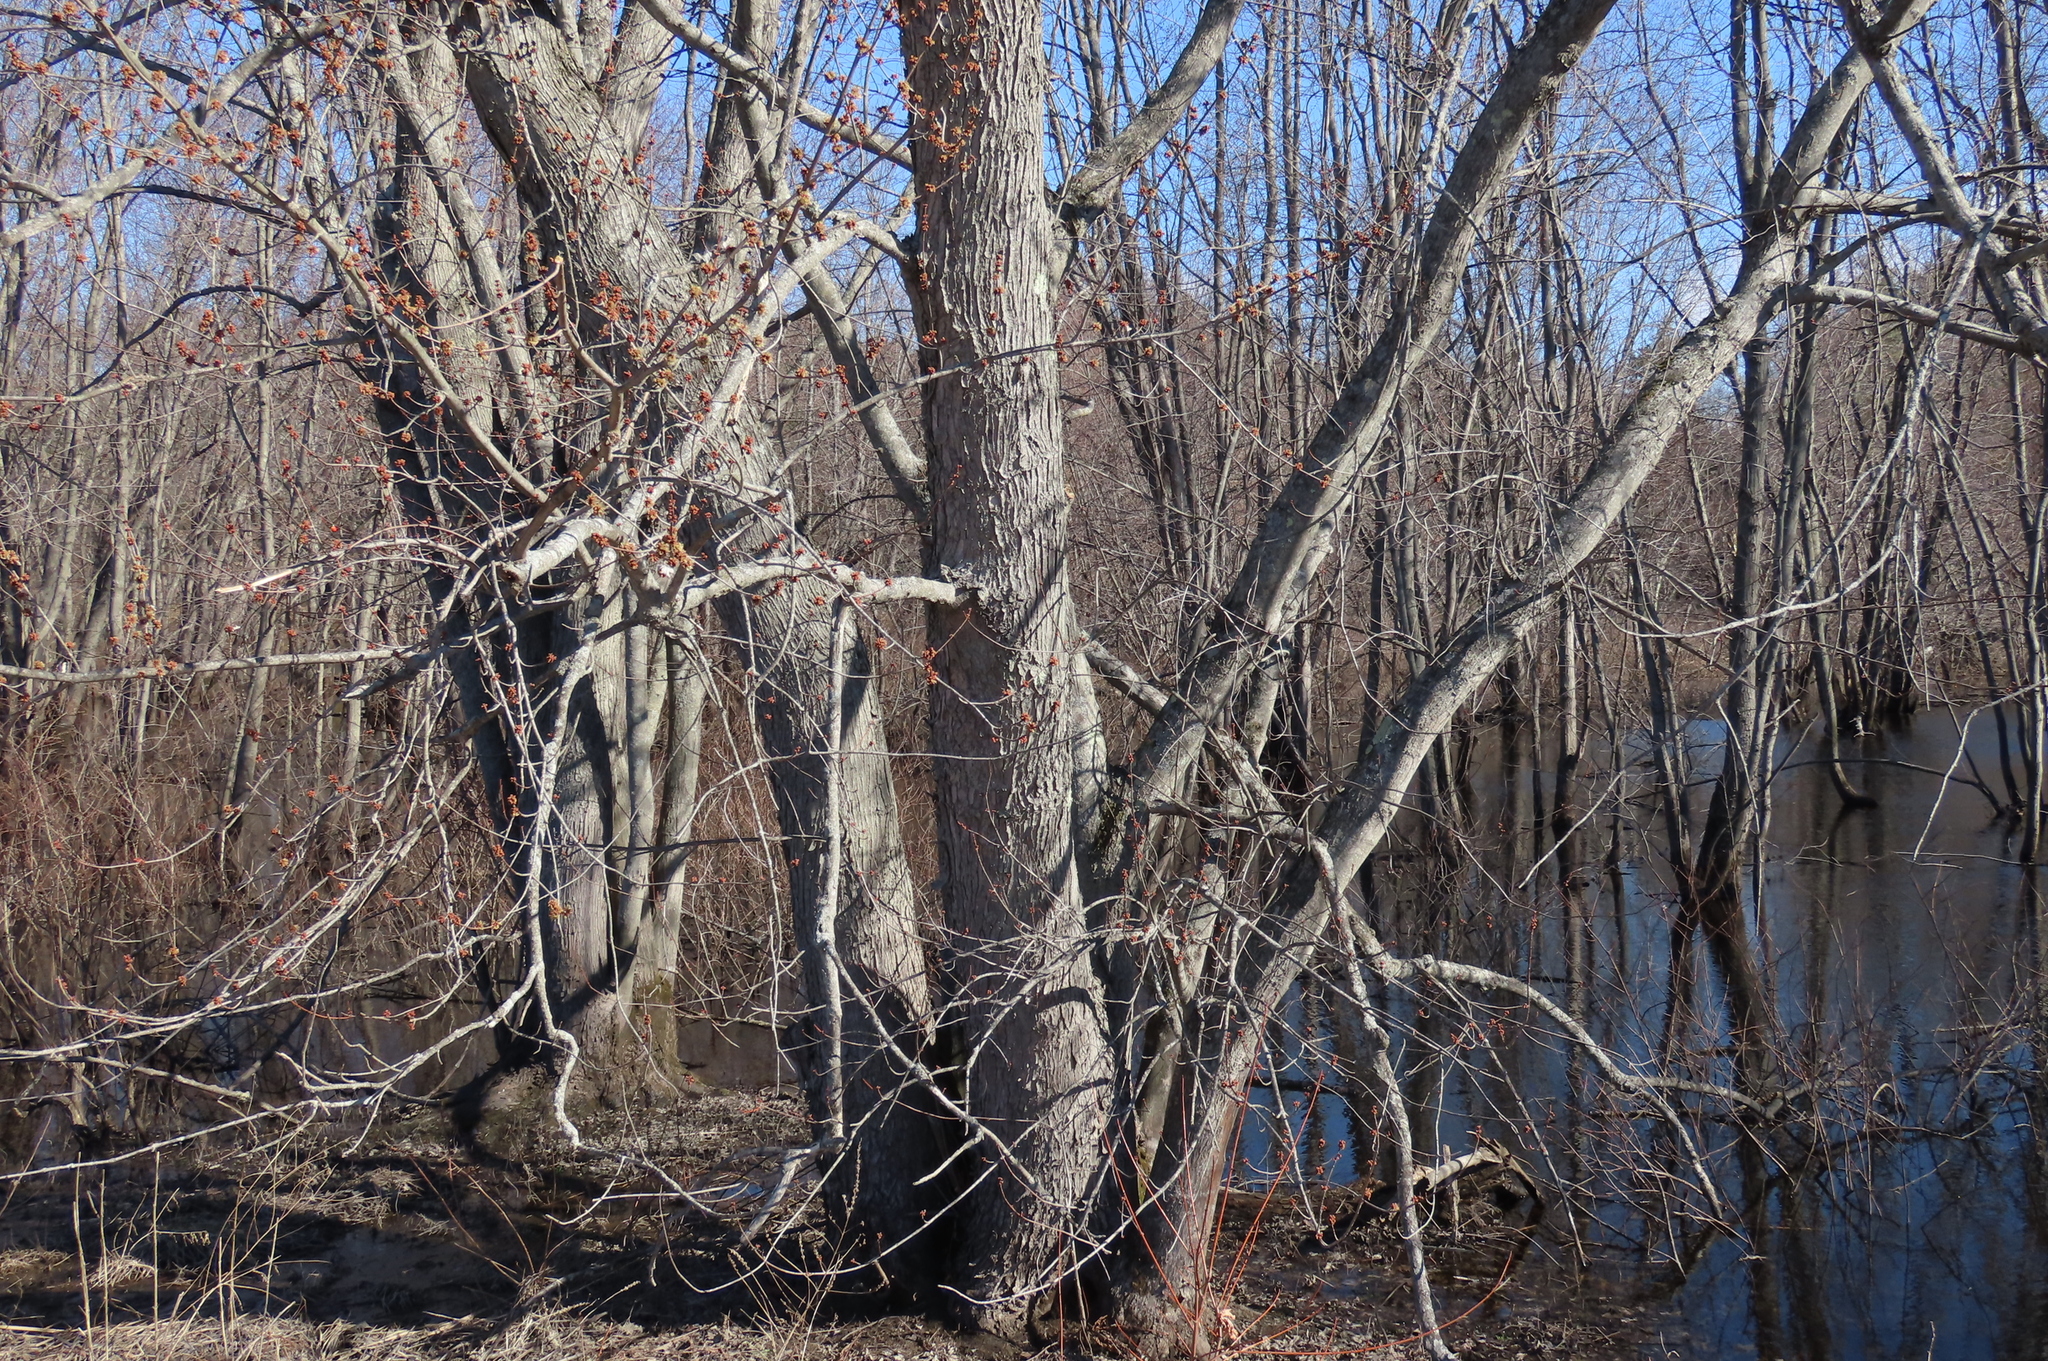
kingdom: Plantae
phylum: Tracheophyta
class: Magnoliopsida
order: Sapindales
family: Sapindaceae
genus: Acer
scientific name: Acer saccharinum
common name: Silver maple
